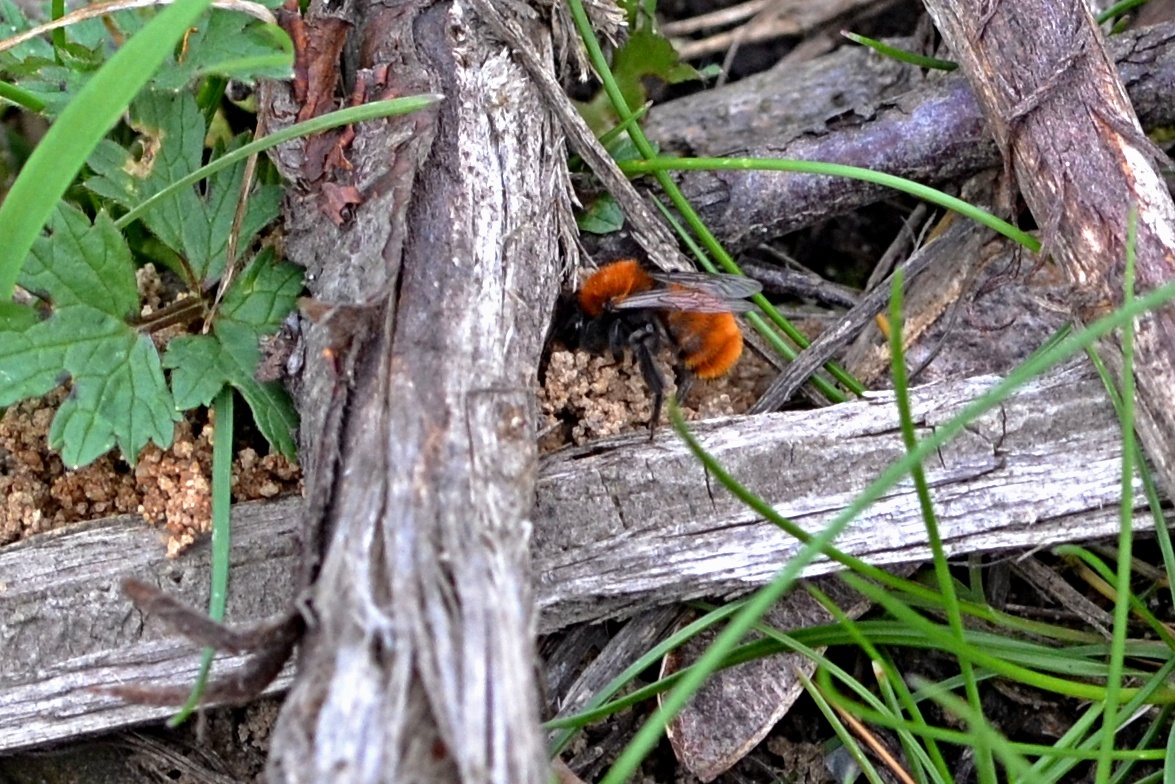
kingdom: Animalia
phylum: Arthropoda
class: Insecta
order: Hymenoptera
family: Andrenidae
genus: Andrena
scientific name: Andrena fulva
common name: Tawny mining bee
